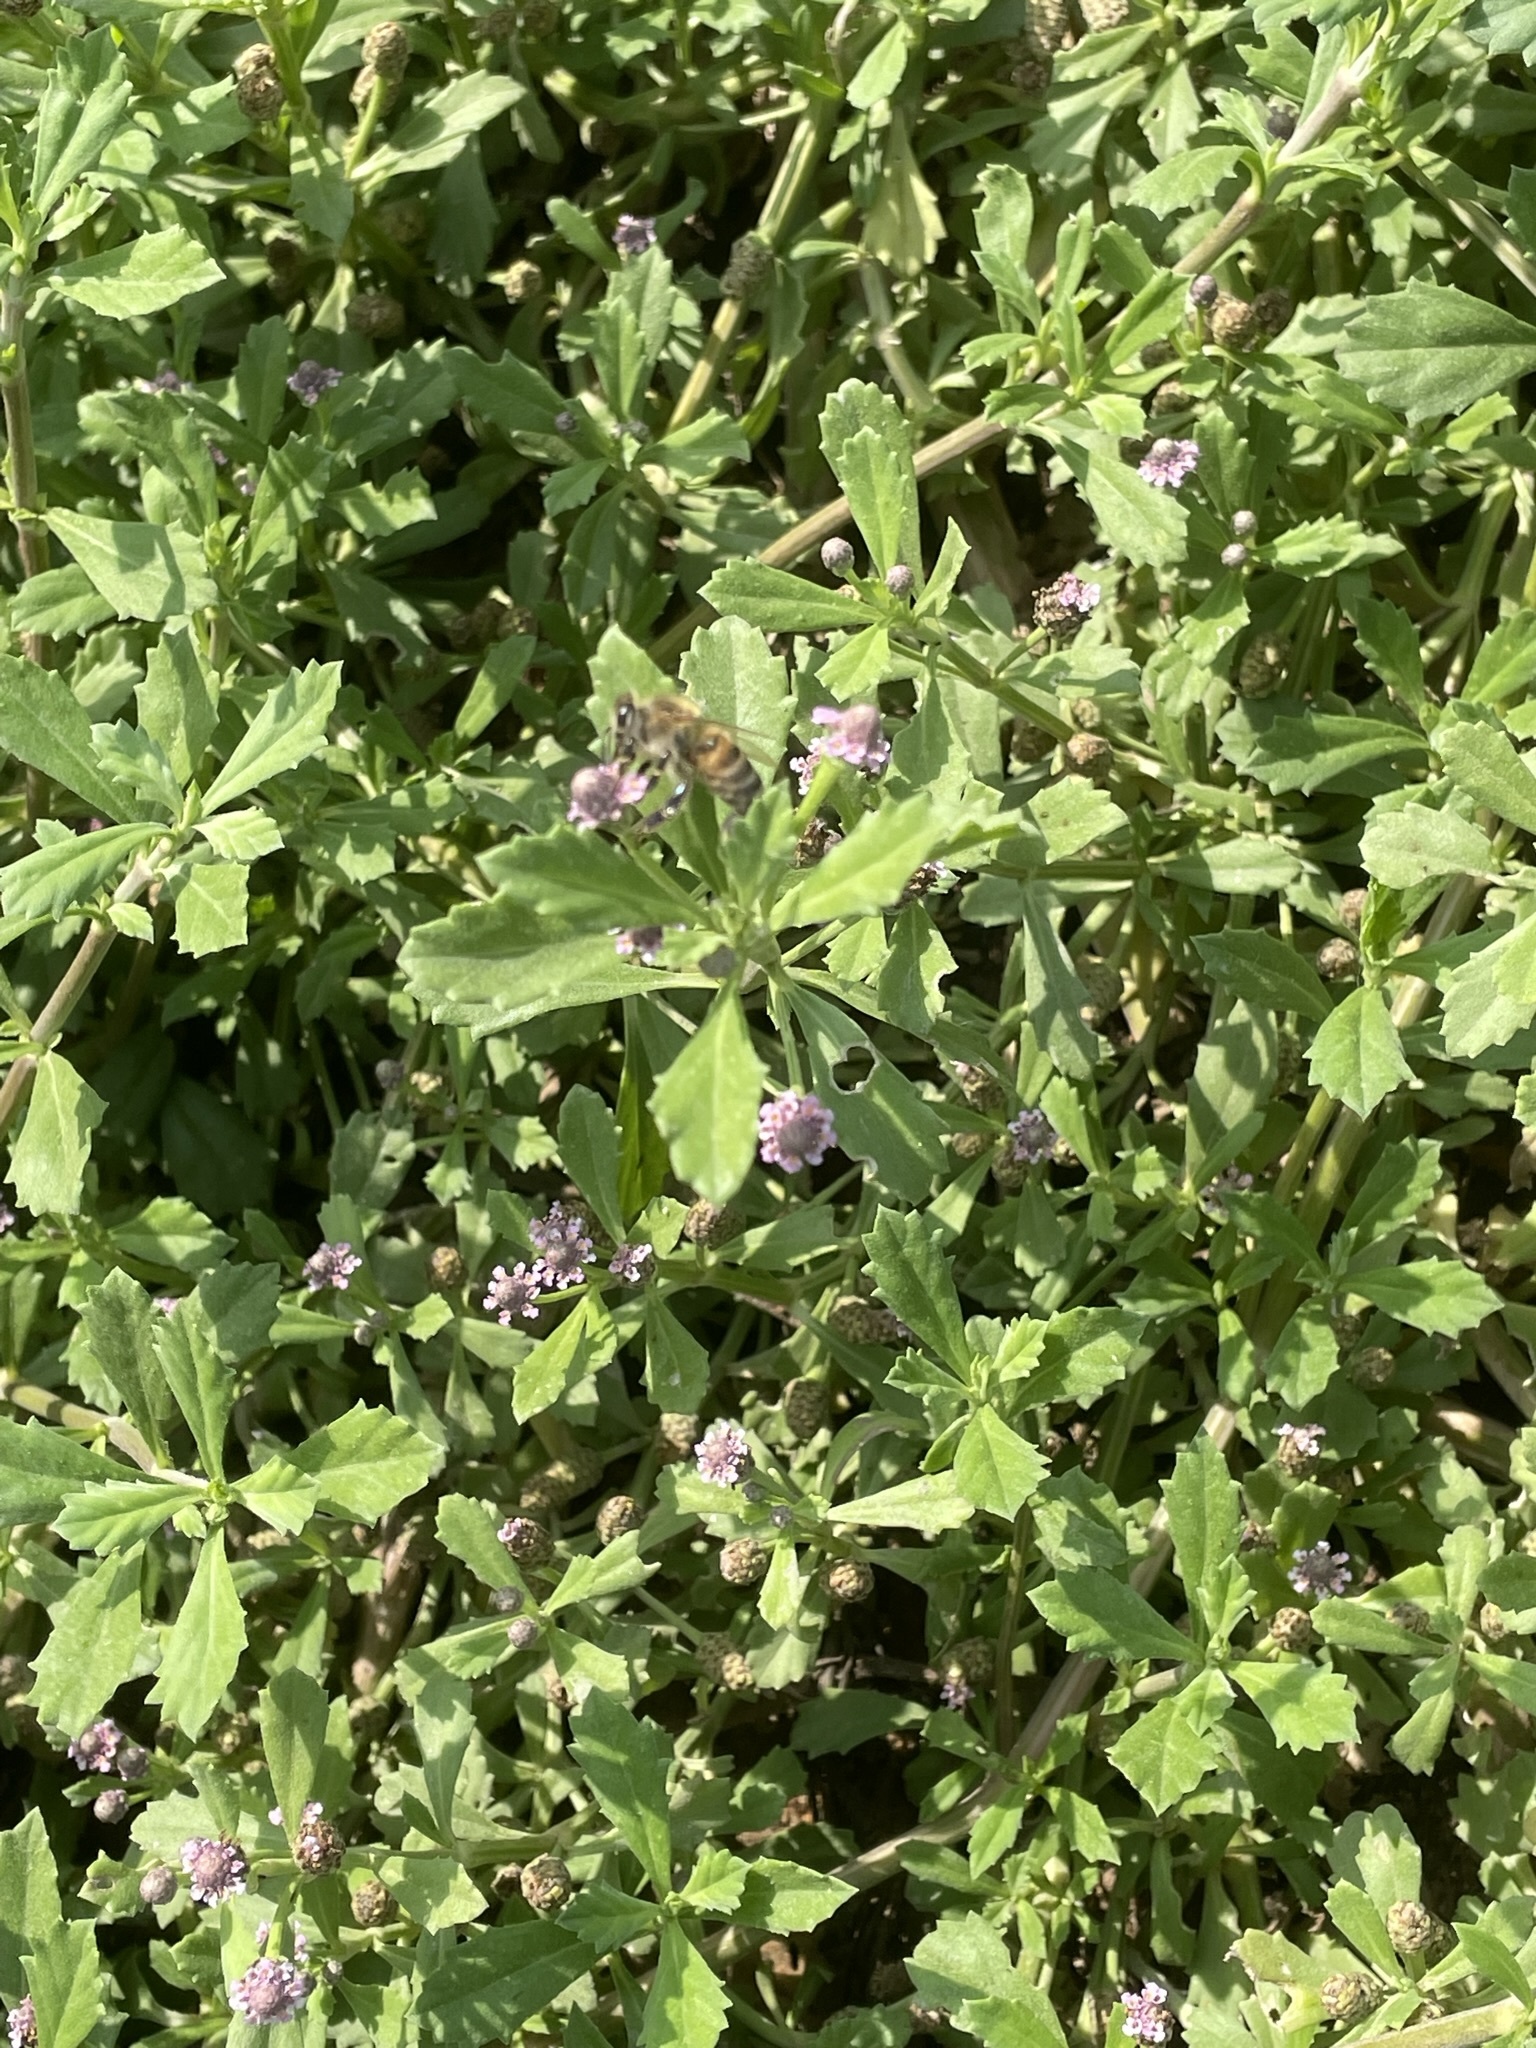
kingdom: Animalia
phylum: Arthropoda
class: Insecta
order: Hymenoptera
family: Apidae
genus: Apis
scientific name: Apis mellifera
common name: Honey bee
